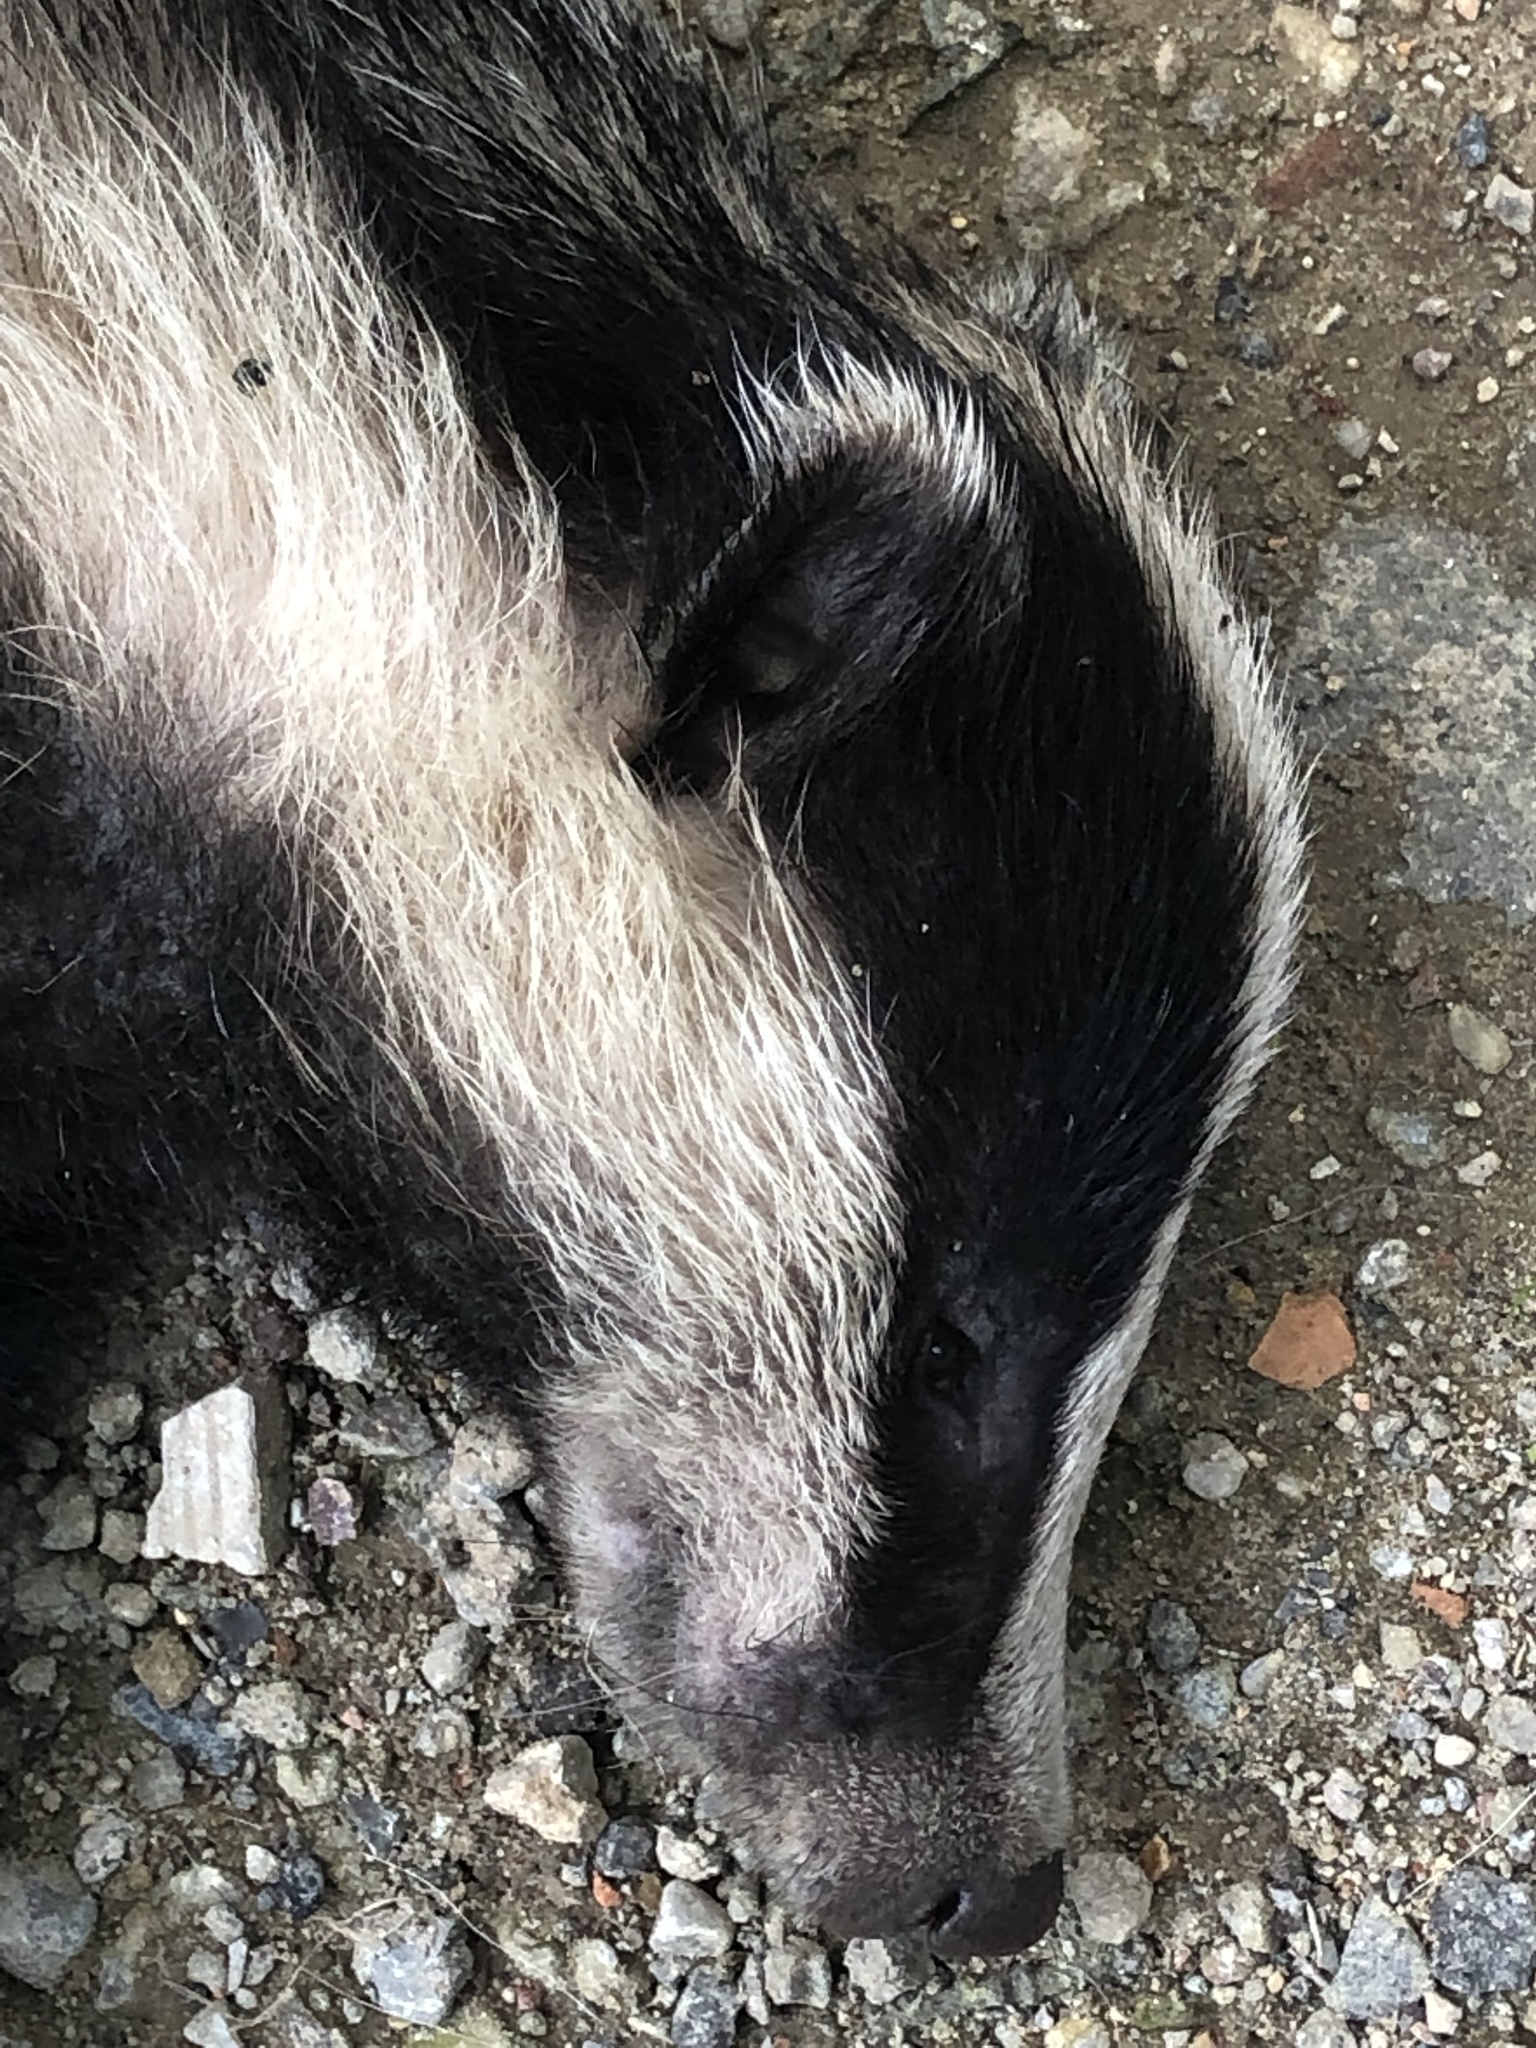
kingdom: Animalia
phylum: Chordata
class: Mammalia
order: Carnivora
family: Mustelidae
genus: Meles
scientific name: Meles meles
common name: Eurasian badger
